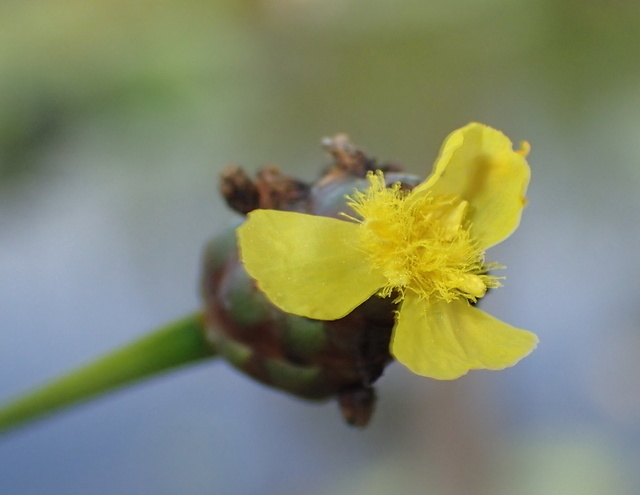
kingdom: Plantae
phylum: Tracheophyta
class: Liliopsida
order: Poales
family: Xyridaceae
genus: Xyris
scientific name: Xyris jupicai
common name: Richard's yelloweyed grass
